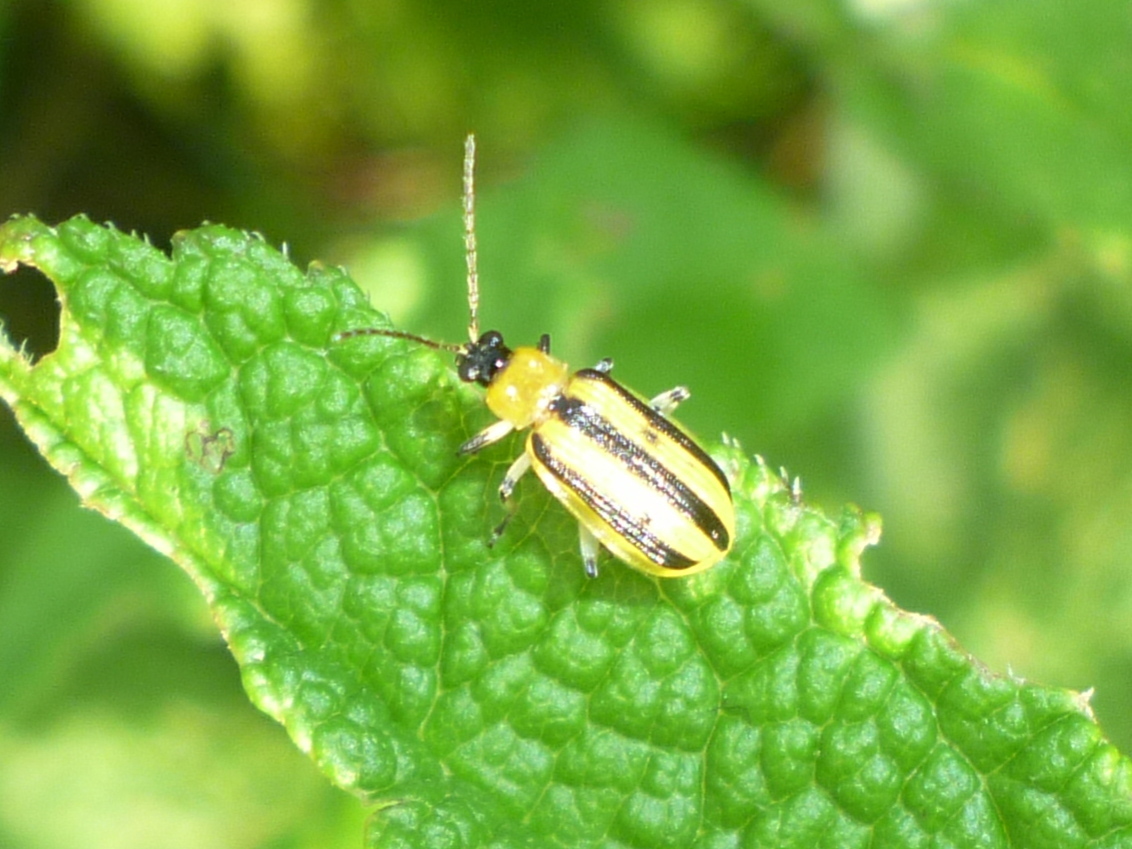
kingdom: Animalia
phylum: Arthropoda
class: Insecta
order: Coleoptera
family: Chrysomelidae
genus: Acalymma
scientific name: Acalymma vittatum
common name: Striped cucumber beetle
